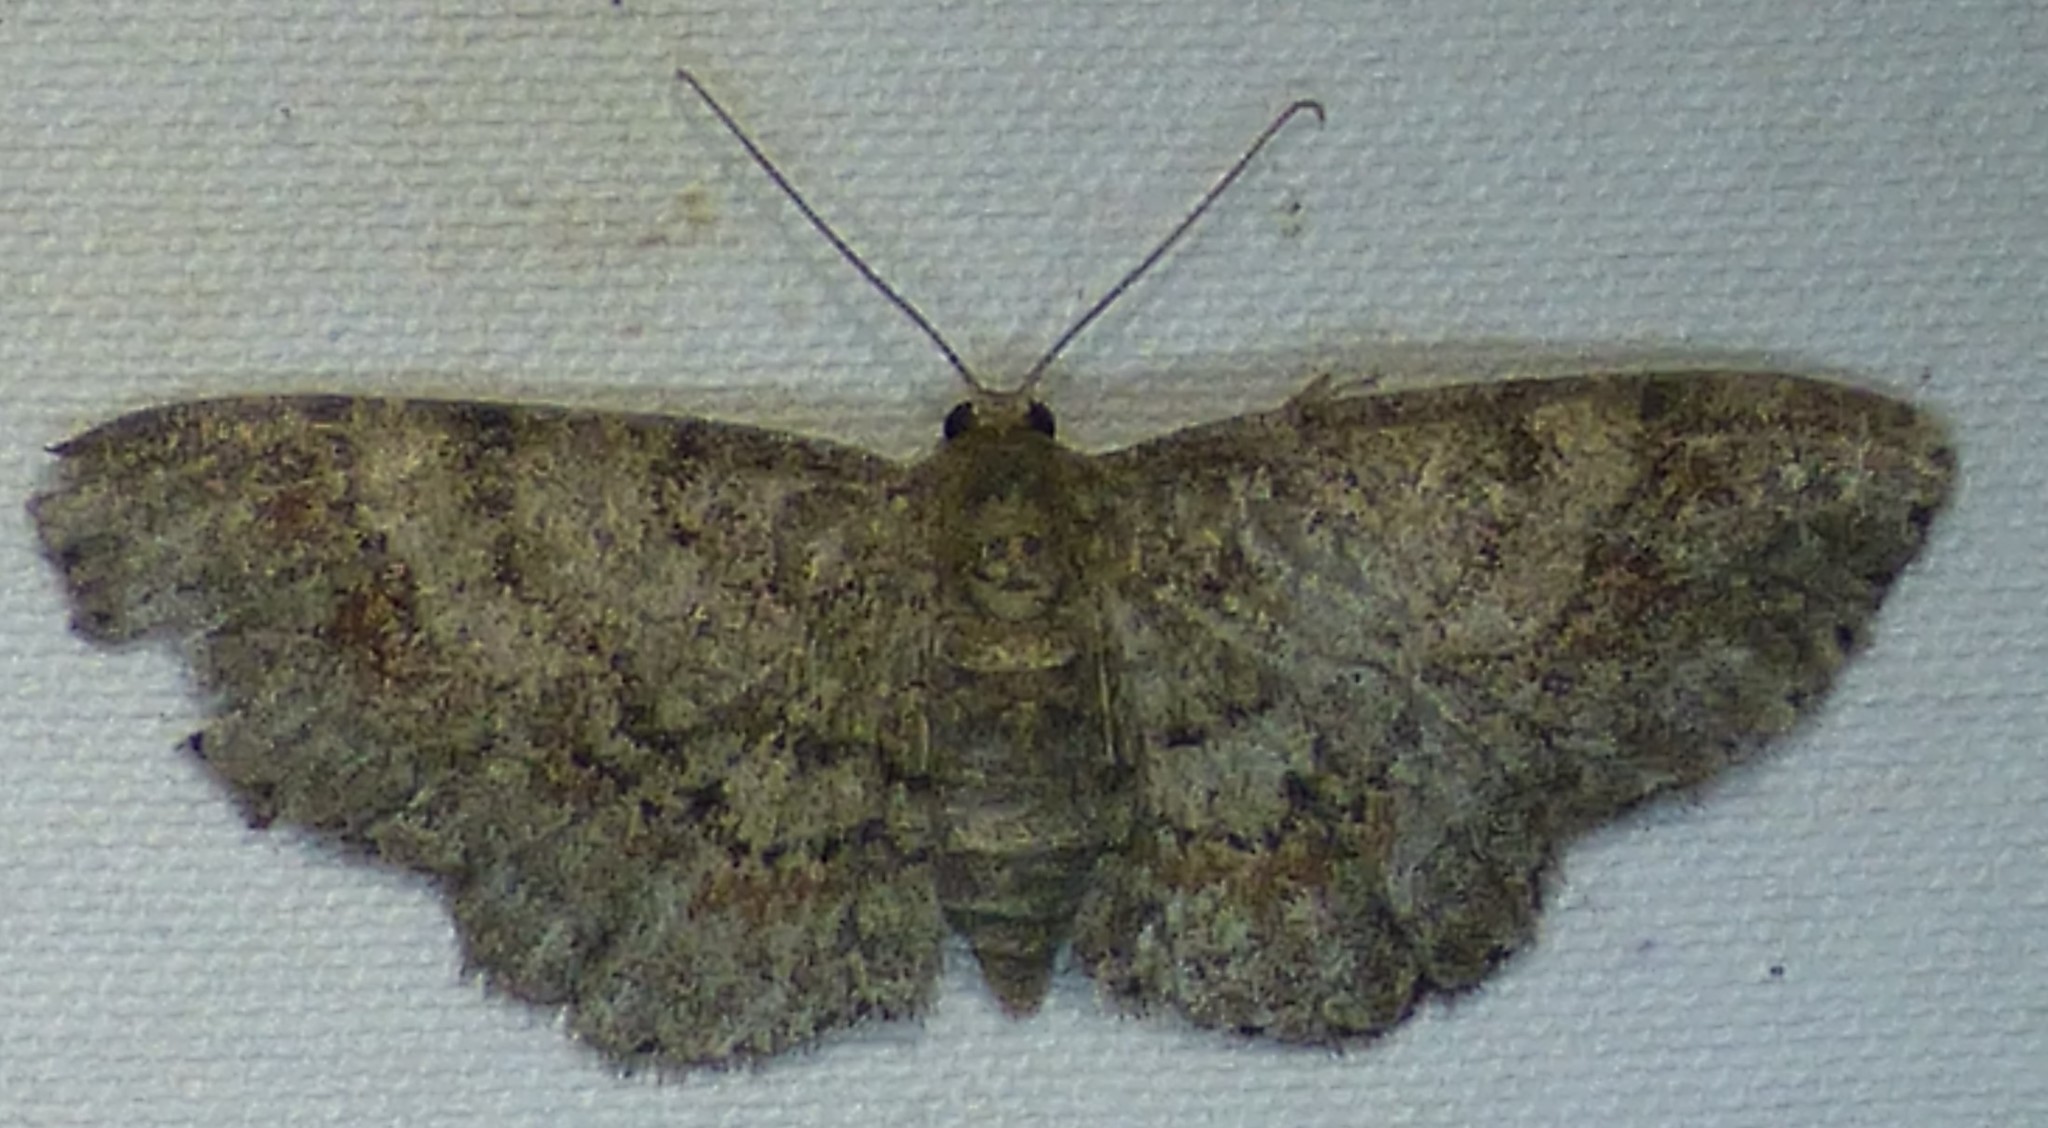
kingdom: Animalia
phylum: Arthropoda
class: Insecta
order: Lepidoptera
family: Geometridae
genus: Glenoides
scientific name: Glenoides texanaria
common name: Texas gray
